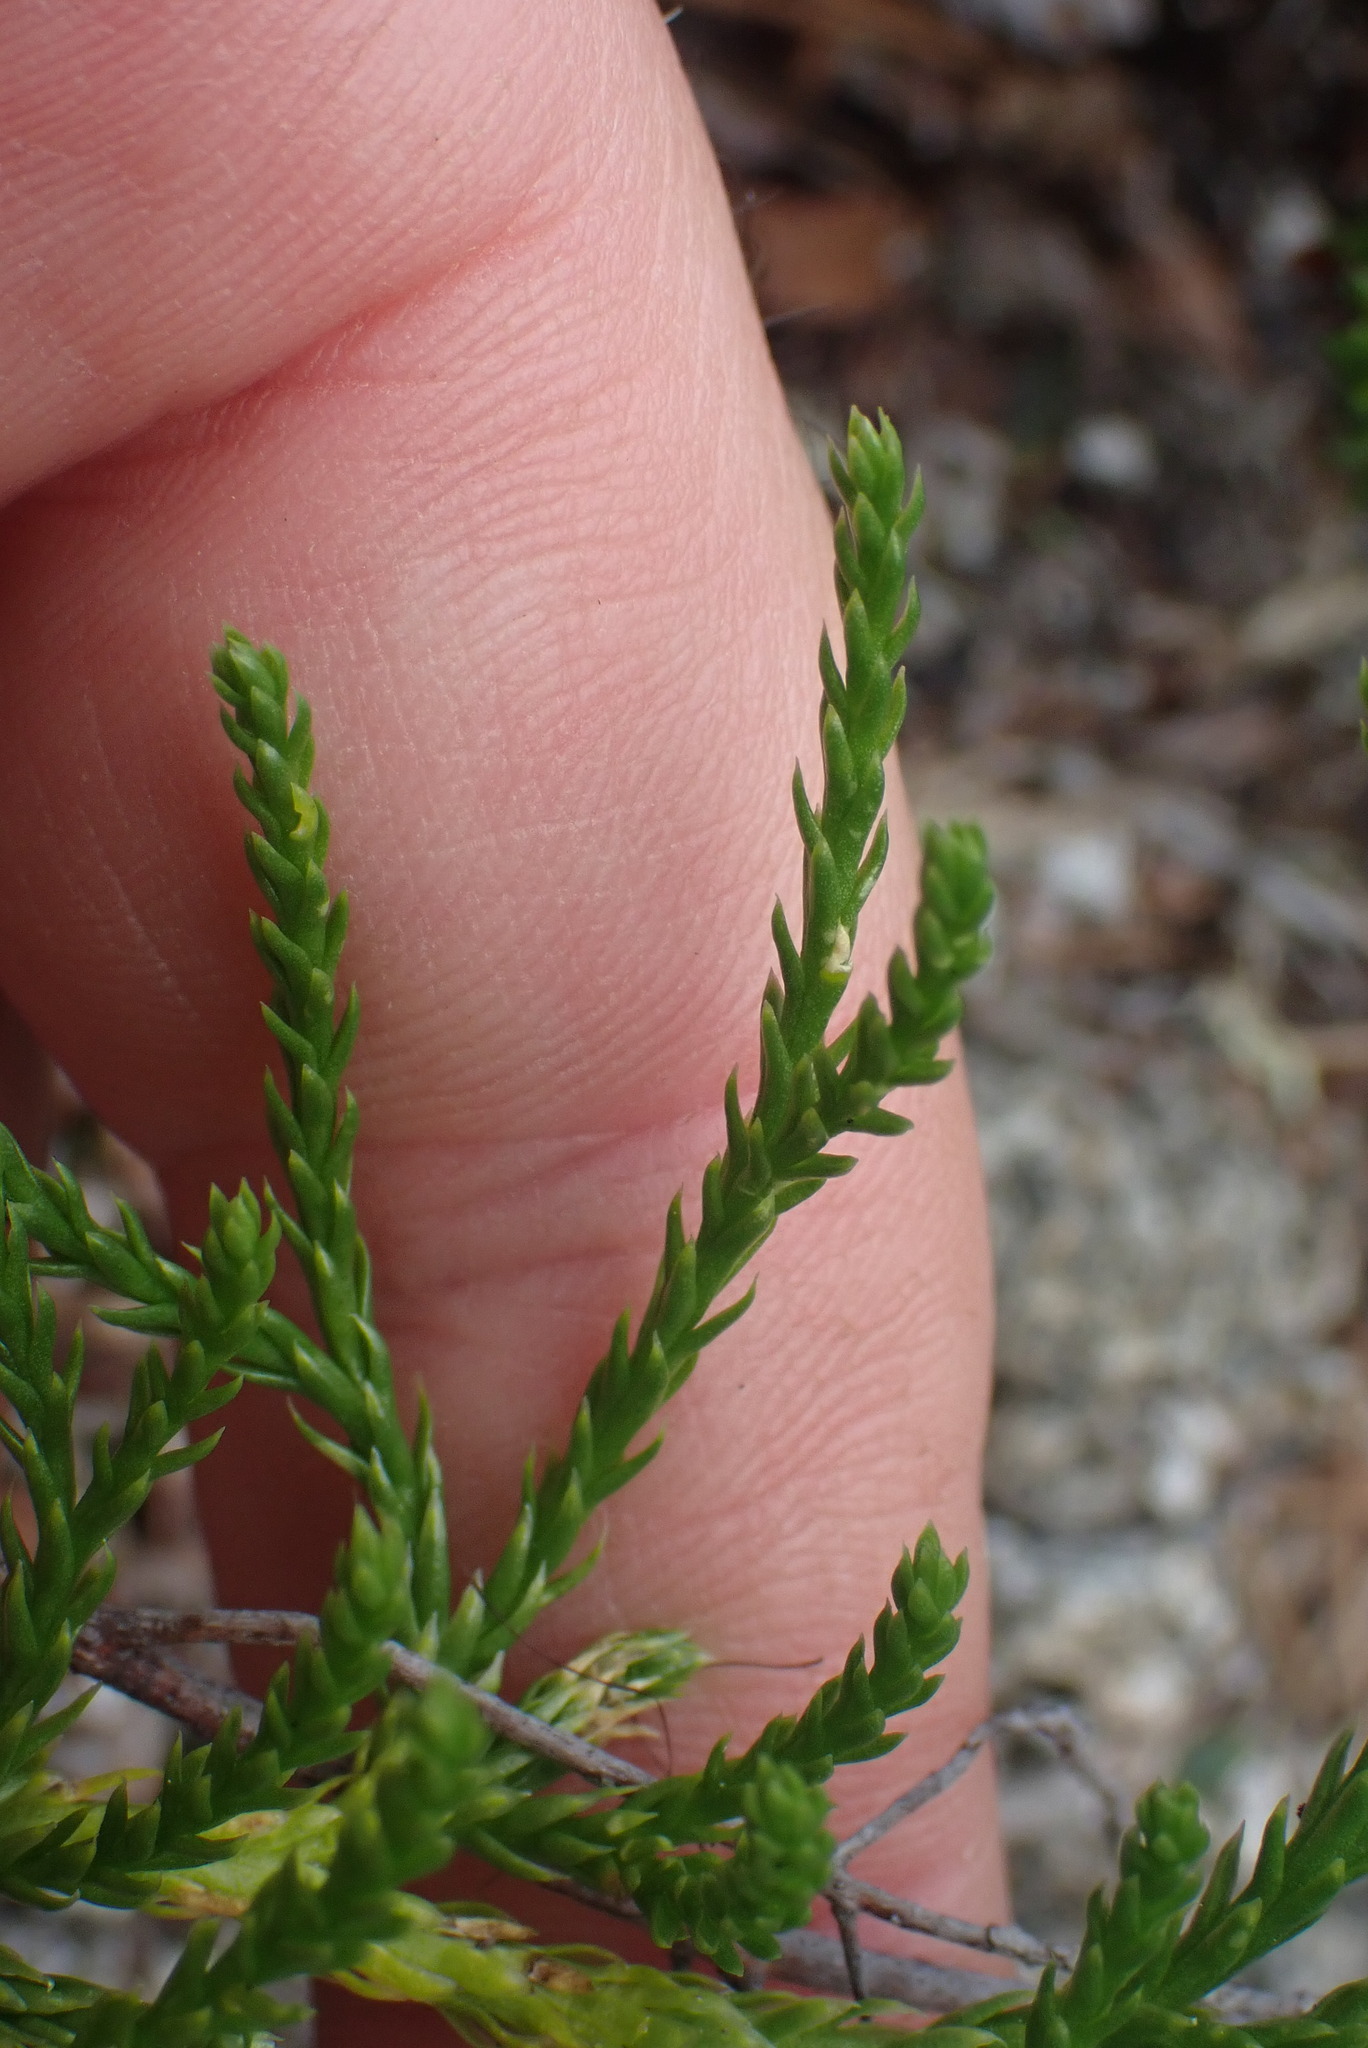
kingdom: Plantae
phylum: Tracheophyta
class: Lycopodiopsida
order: Lycopodiales
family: Lycopodiaceae
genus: Diphasiastrum
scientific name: Diphasiastrum sitchense
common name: Alaska clubmoss
